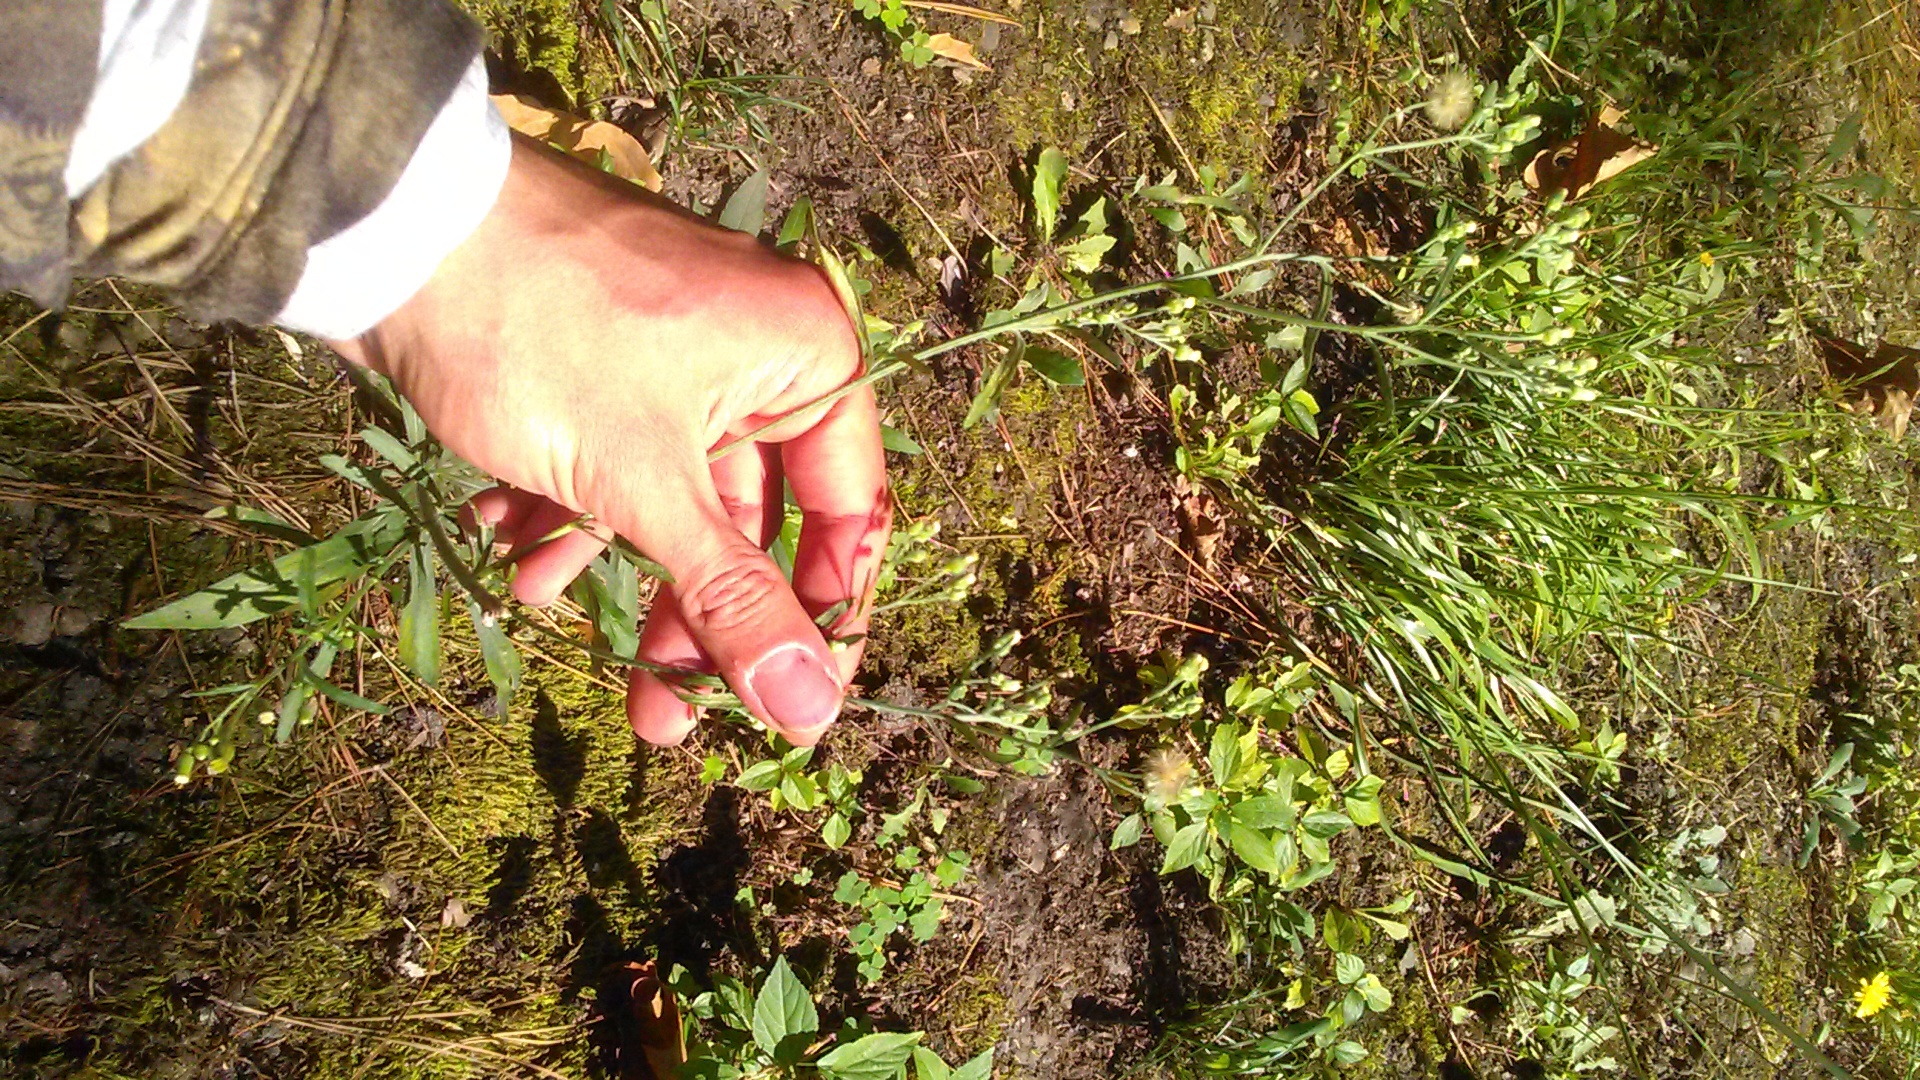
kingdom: Plantae
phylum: Tracheophyta
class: Magnoliopsida
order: Asterales
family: Asteraceae
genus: Erigeron
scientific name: Erigeron sumatrensis
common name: Daisy
